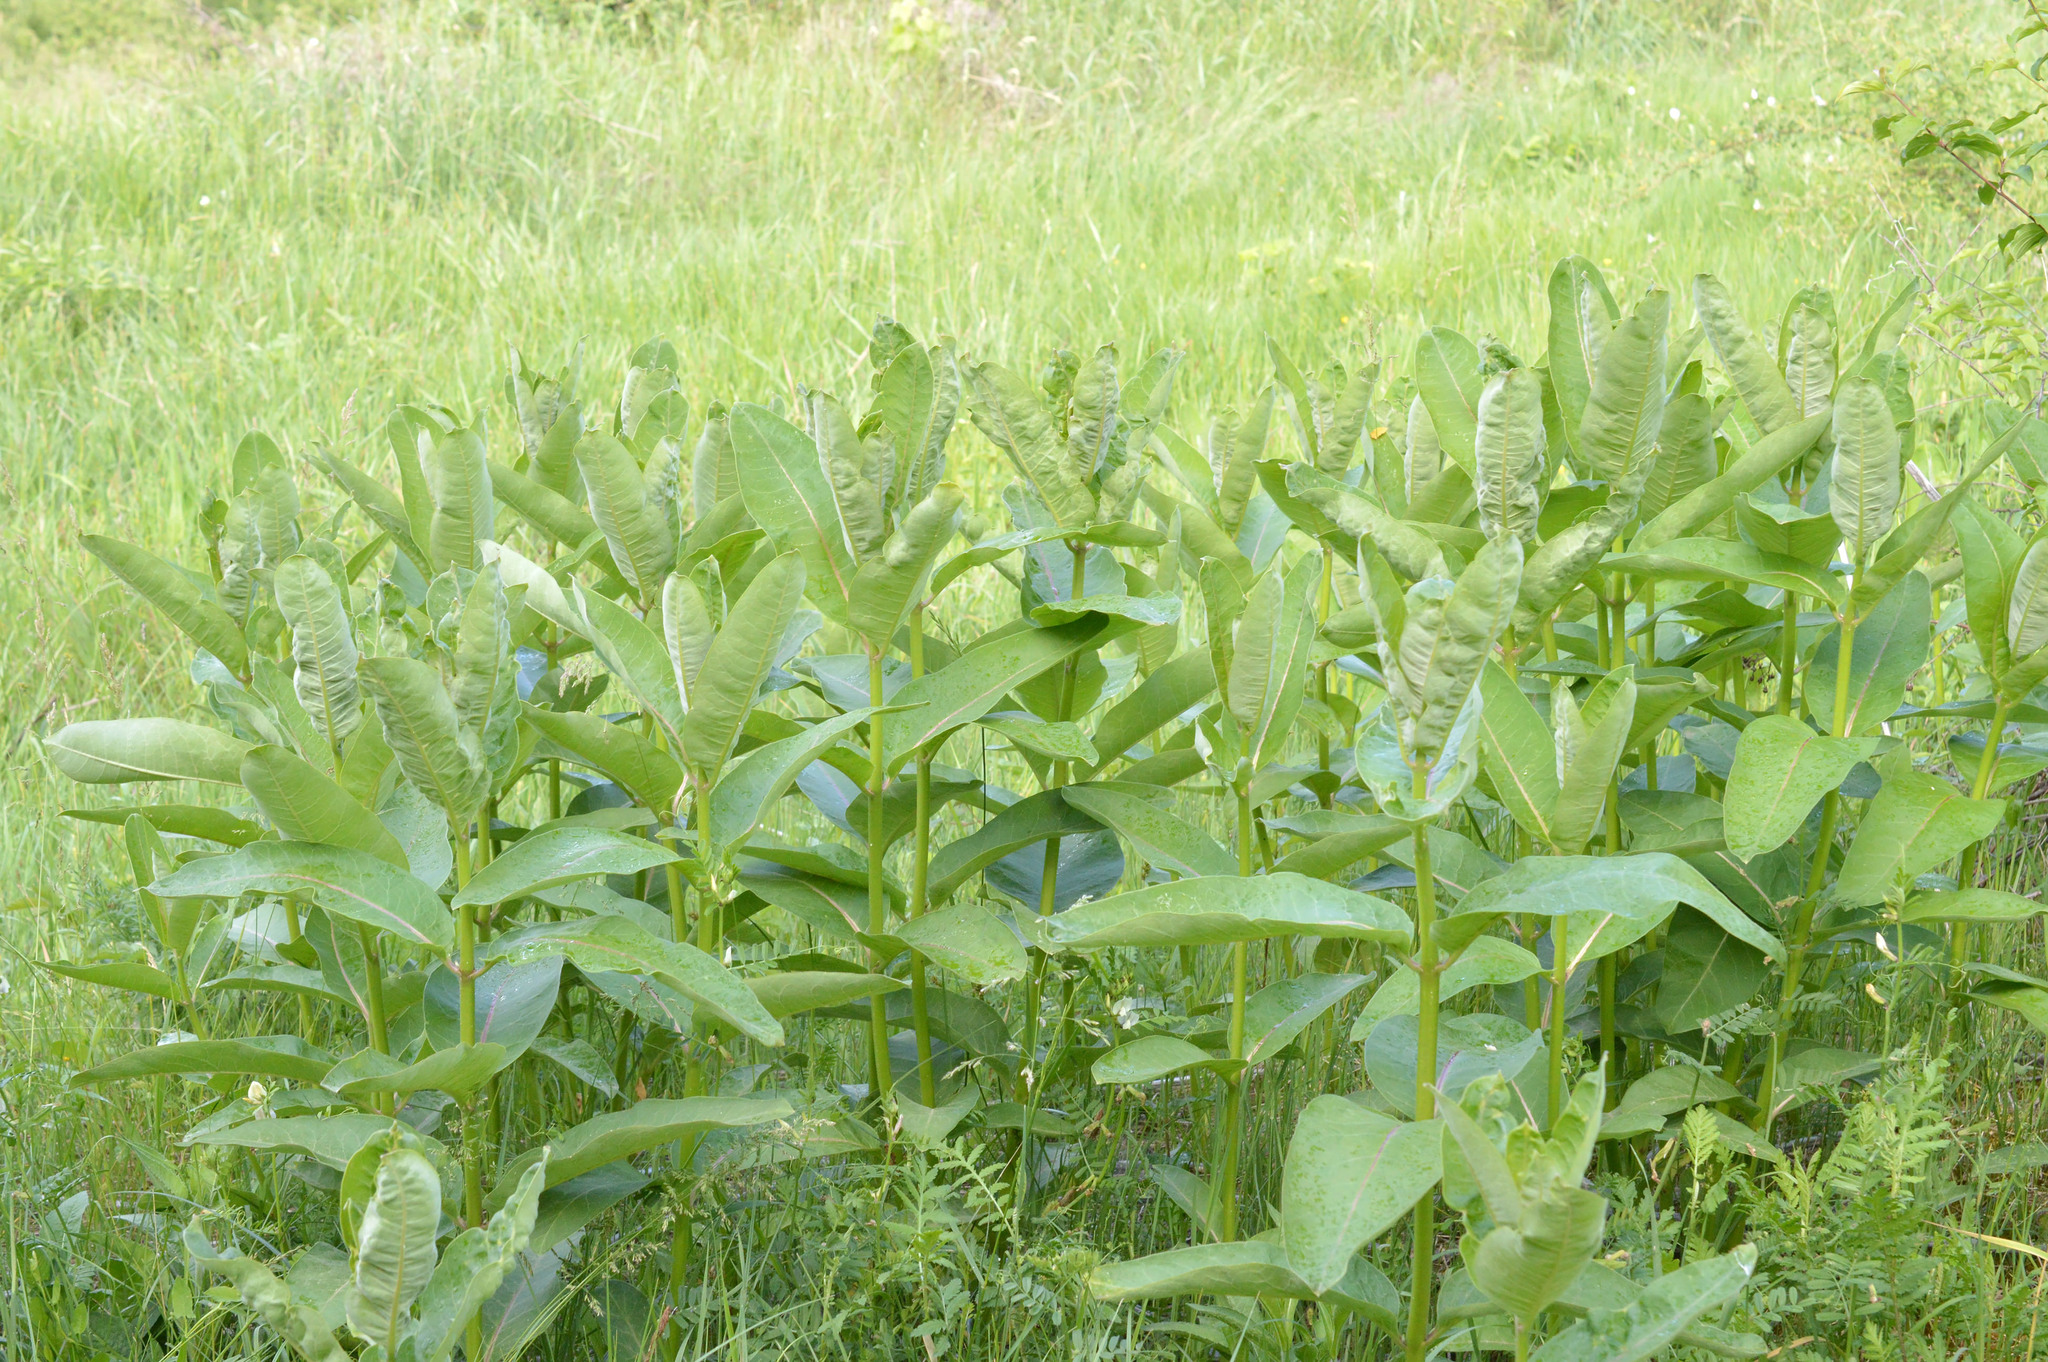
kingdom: Plantae
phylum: Tracheophyta
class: Magnoliopsida
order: Gentianales
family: Apocynaceae
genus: Asclepias
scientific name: Asclepias syriaca
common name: Common milkweed
